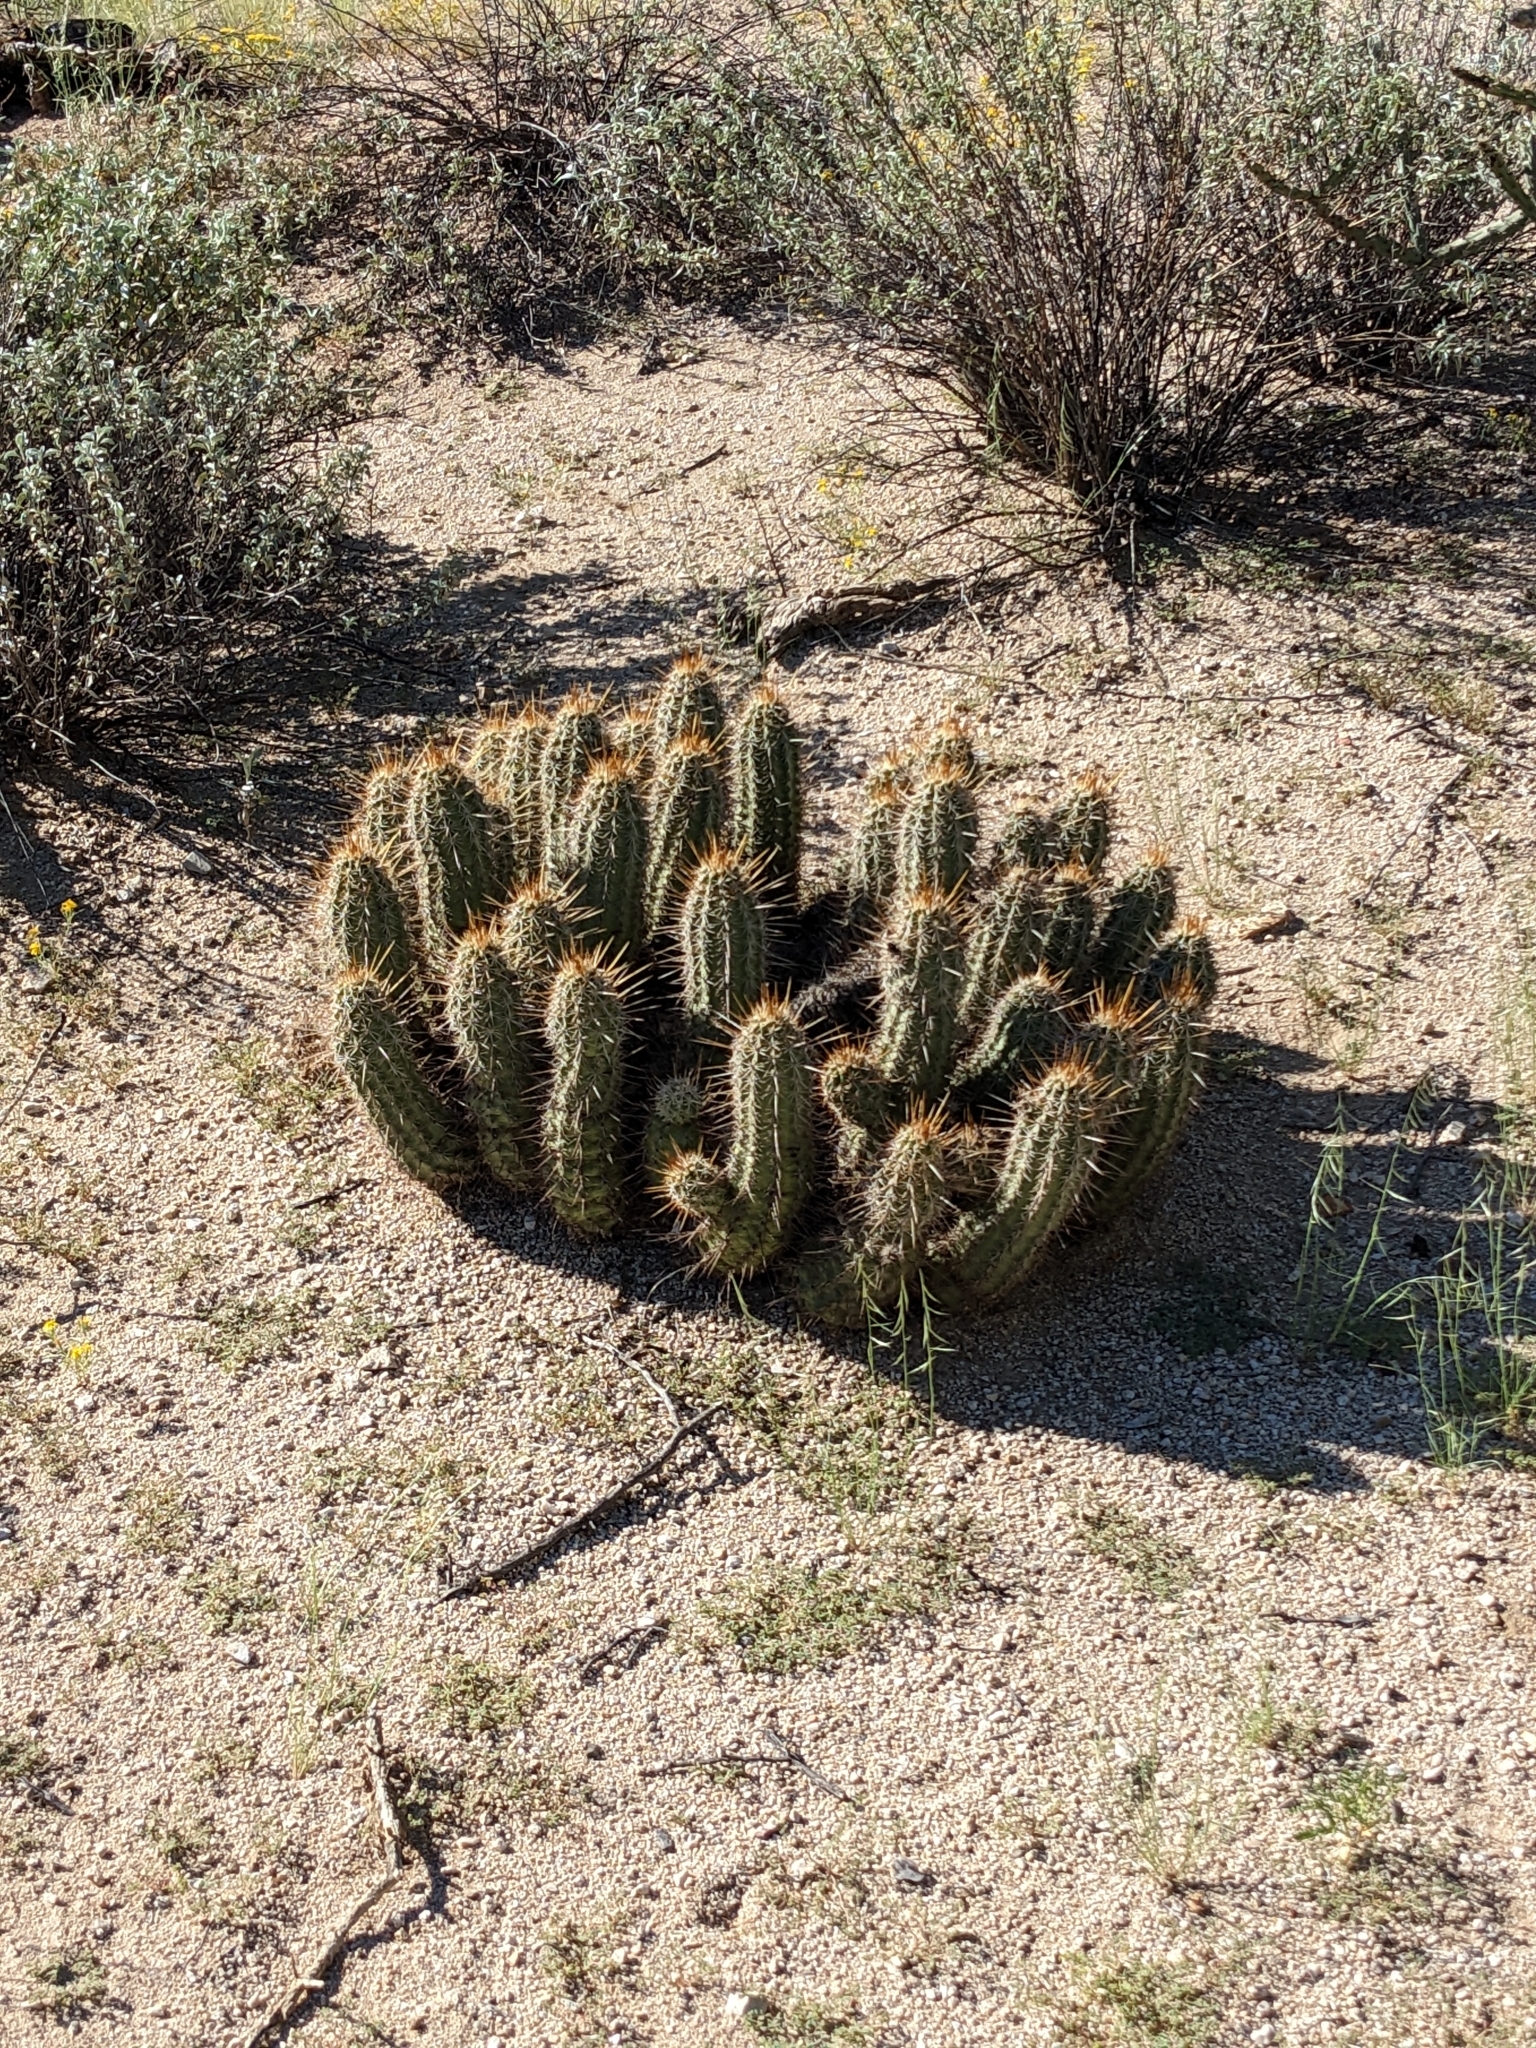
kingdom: Plantae
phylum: Tracheophyta
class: Magnoliopsida
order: Caryophyllales
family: Cactaceae
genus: Echinocereus
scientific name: Echinocereus engelmannii
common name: Engelmann's hedgehog cactus
